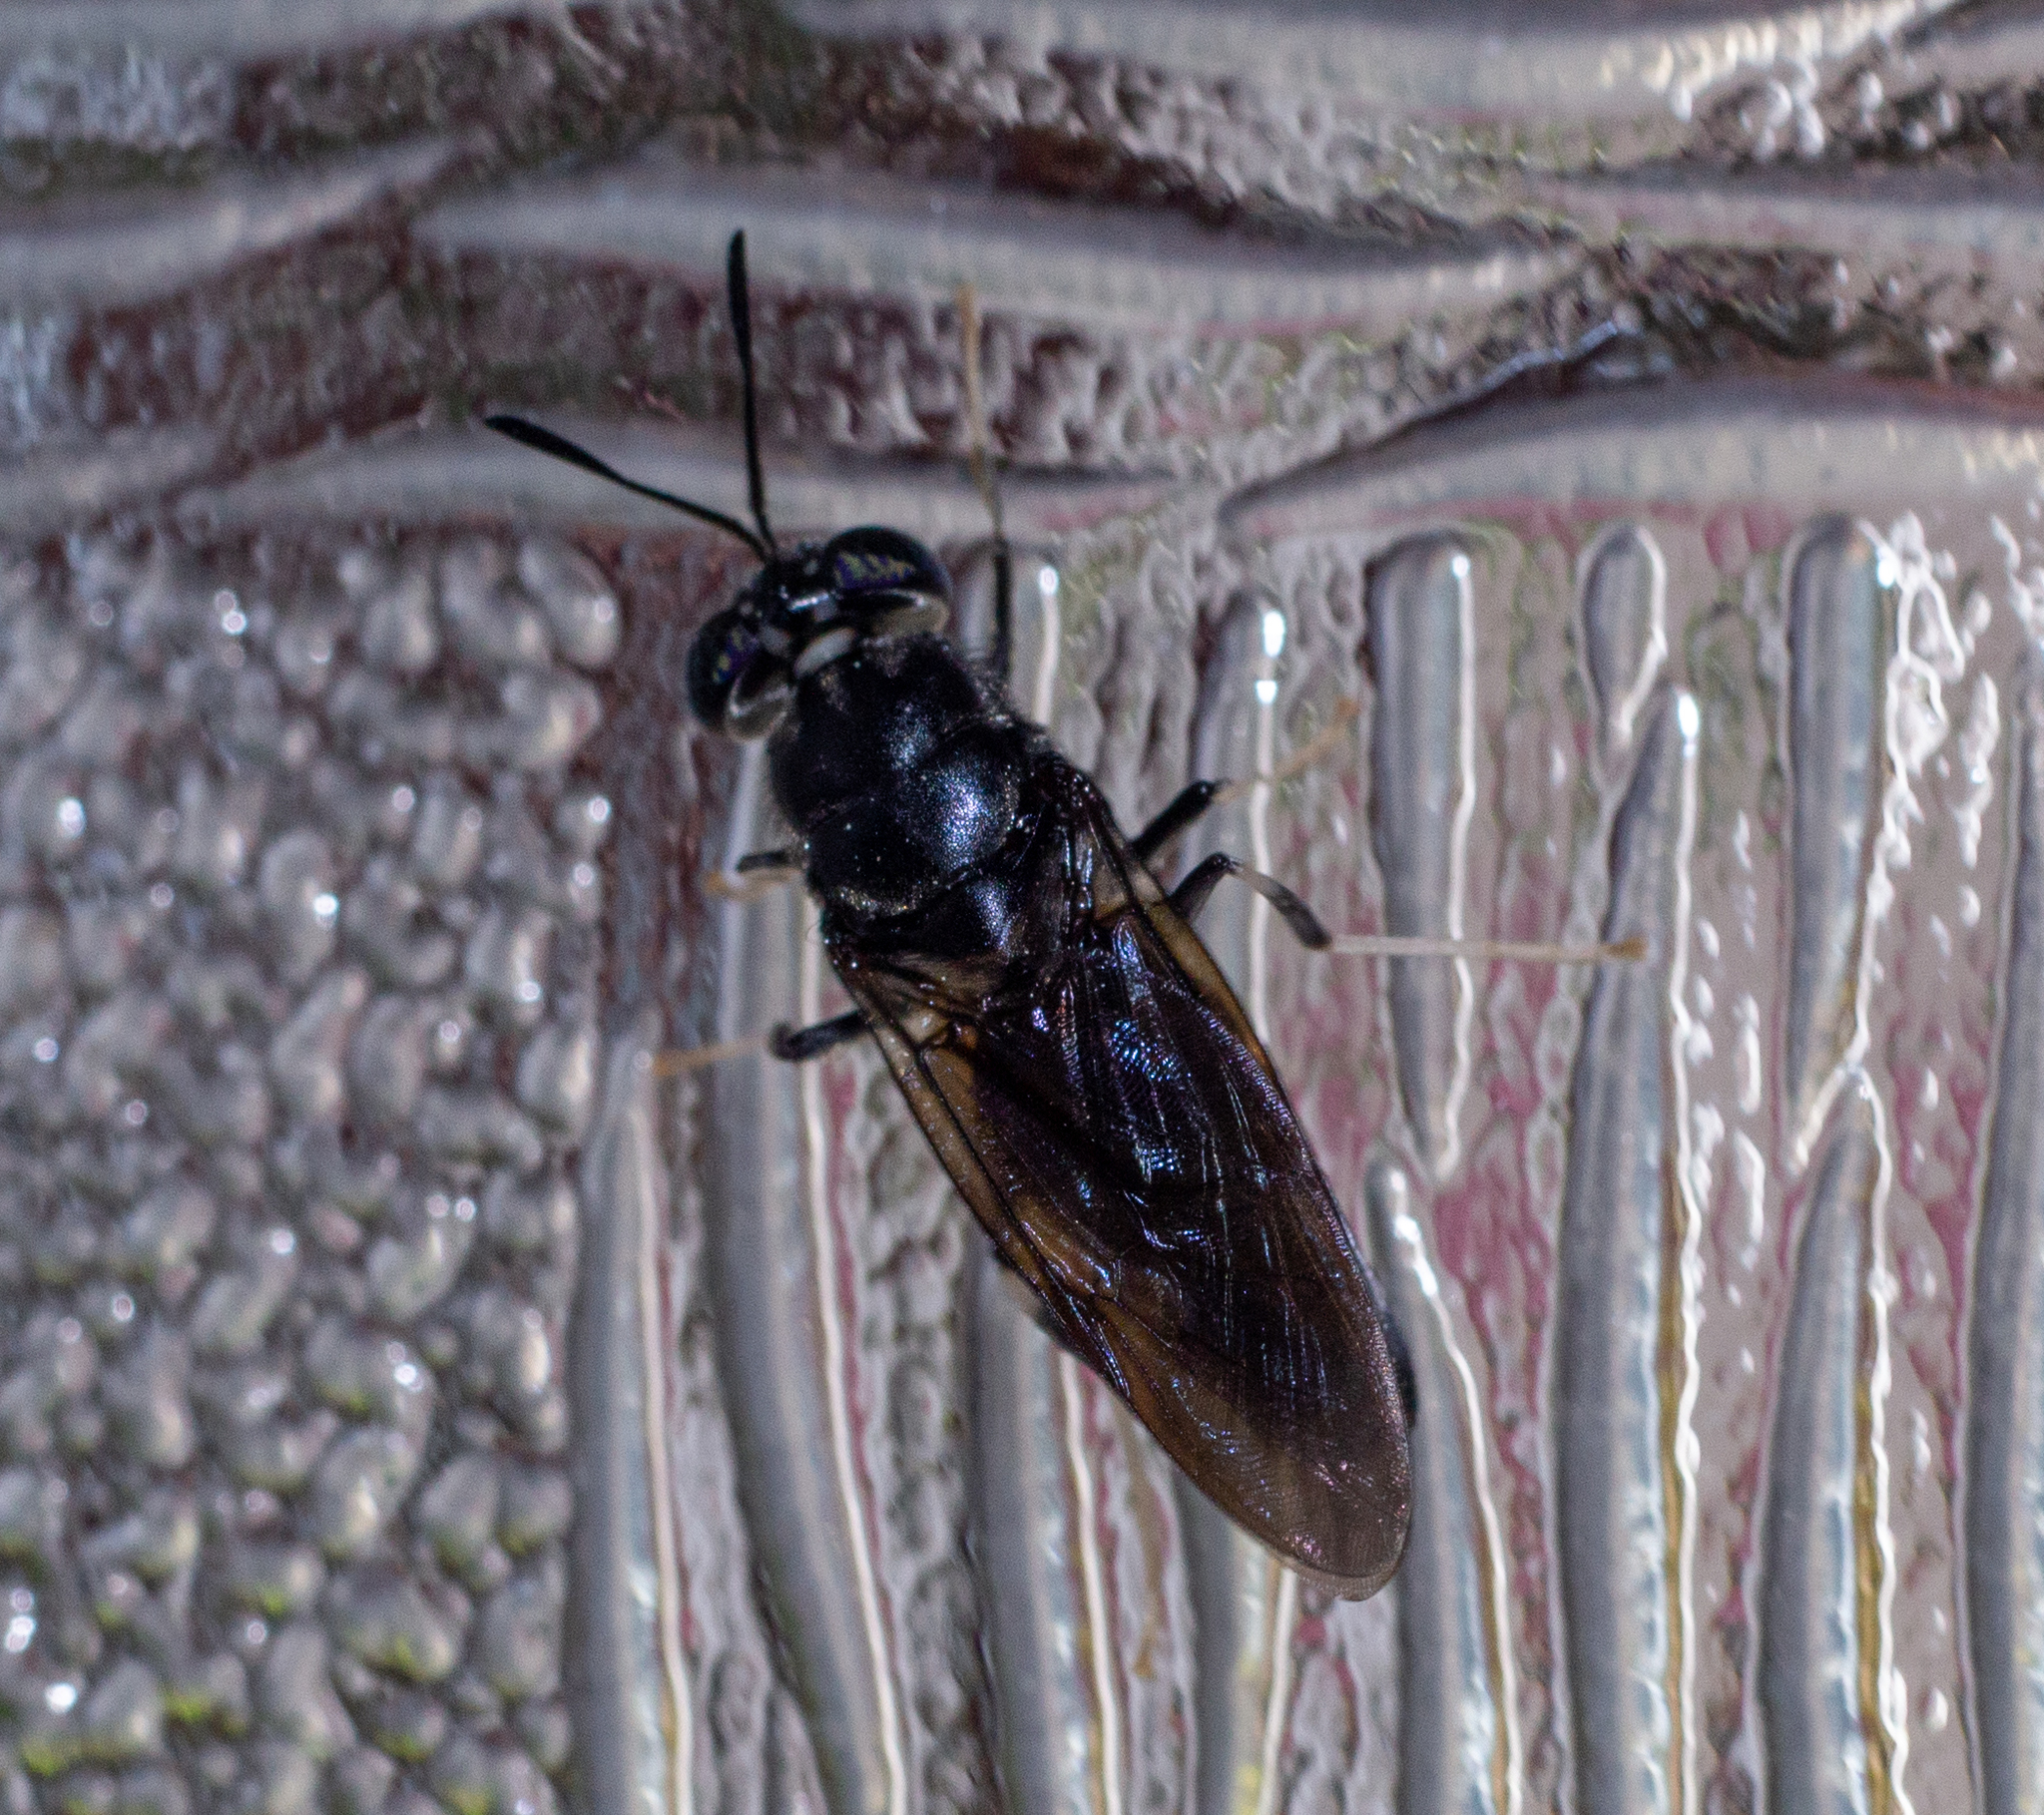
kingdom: Animalia
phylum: Arthropoda
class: Insecta
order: Diptera
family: Stratiomyidae
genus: Hermetia
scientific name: Hermetia illucens
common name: Black soldier fly
